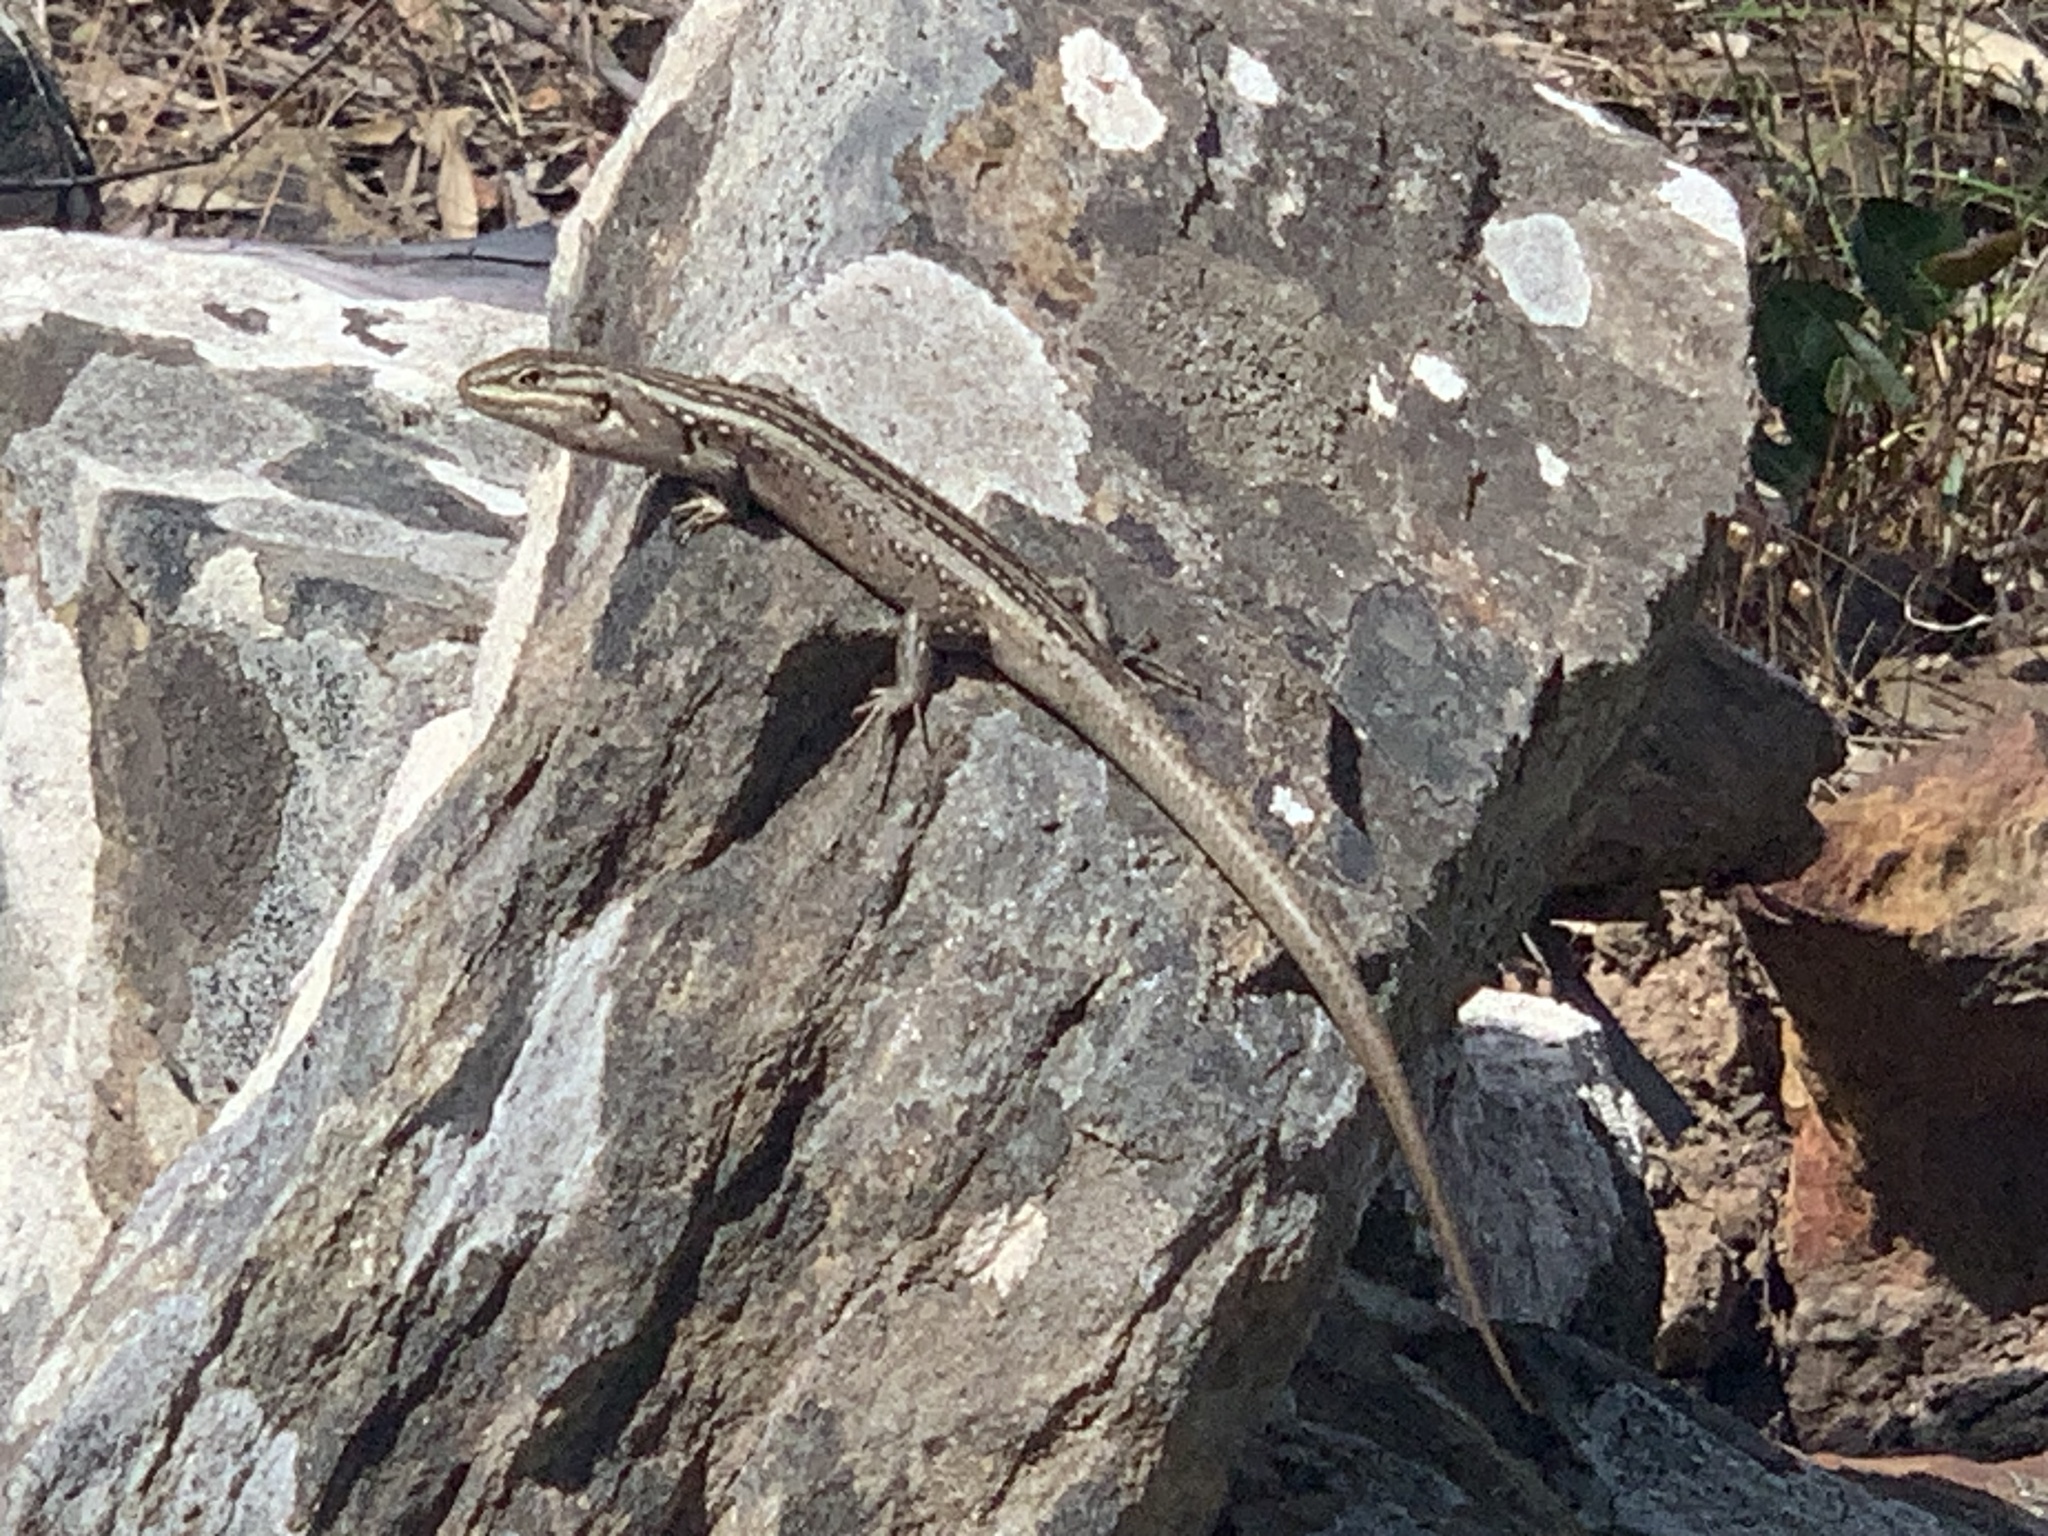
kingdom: Animalia
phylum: Chordata
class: Squamata
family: Scincidae
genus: Liopholis
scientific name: Liopholis whitii
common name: White's rock-skink
